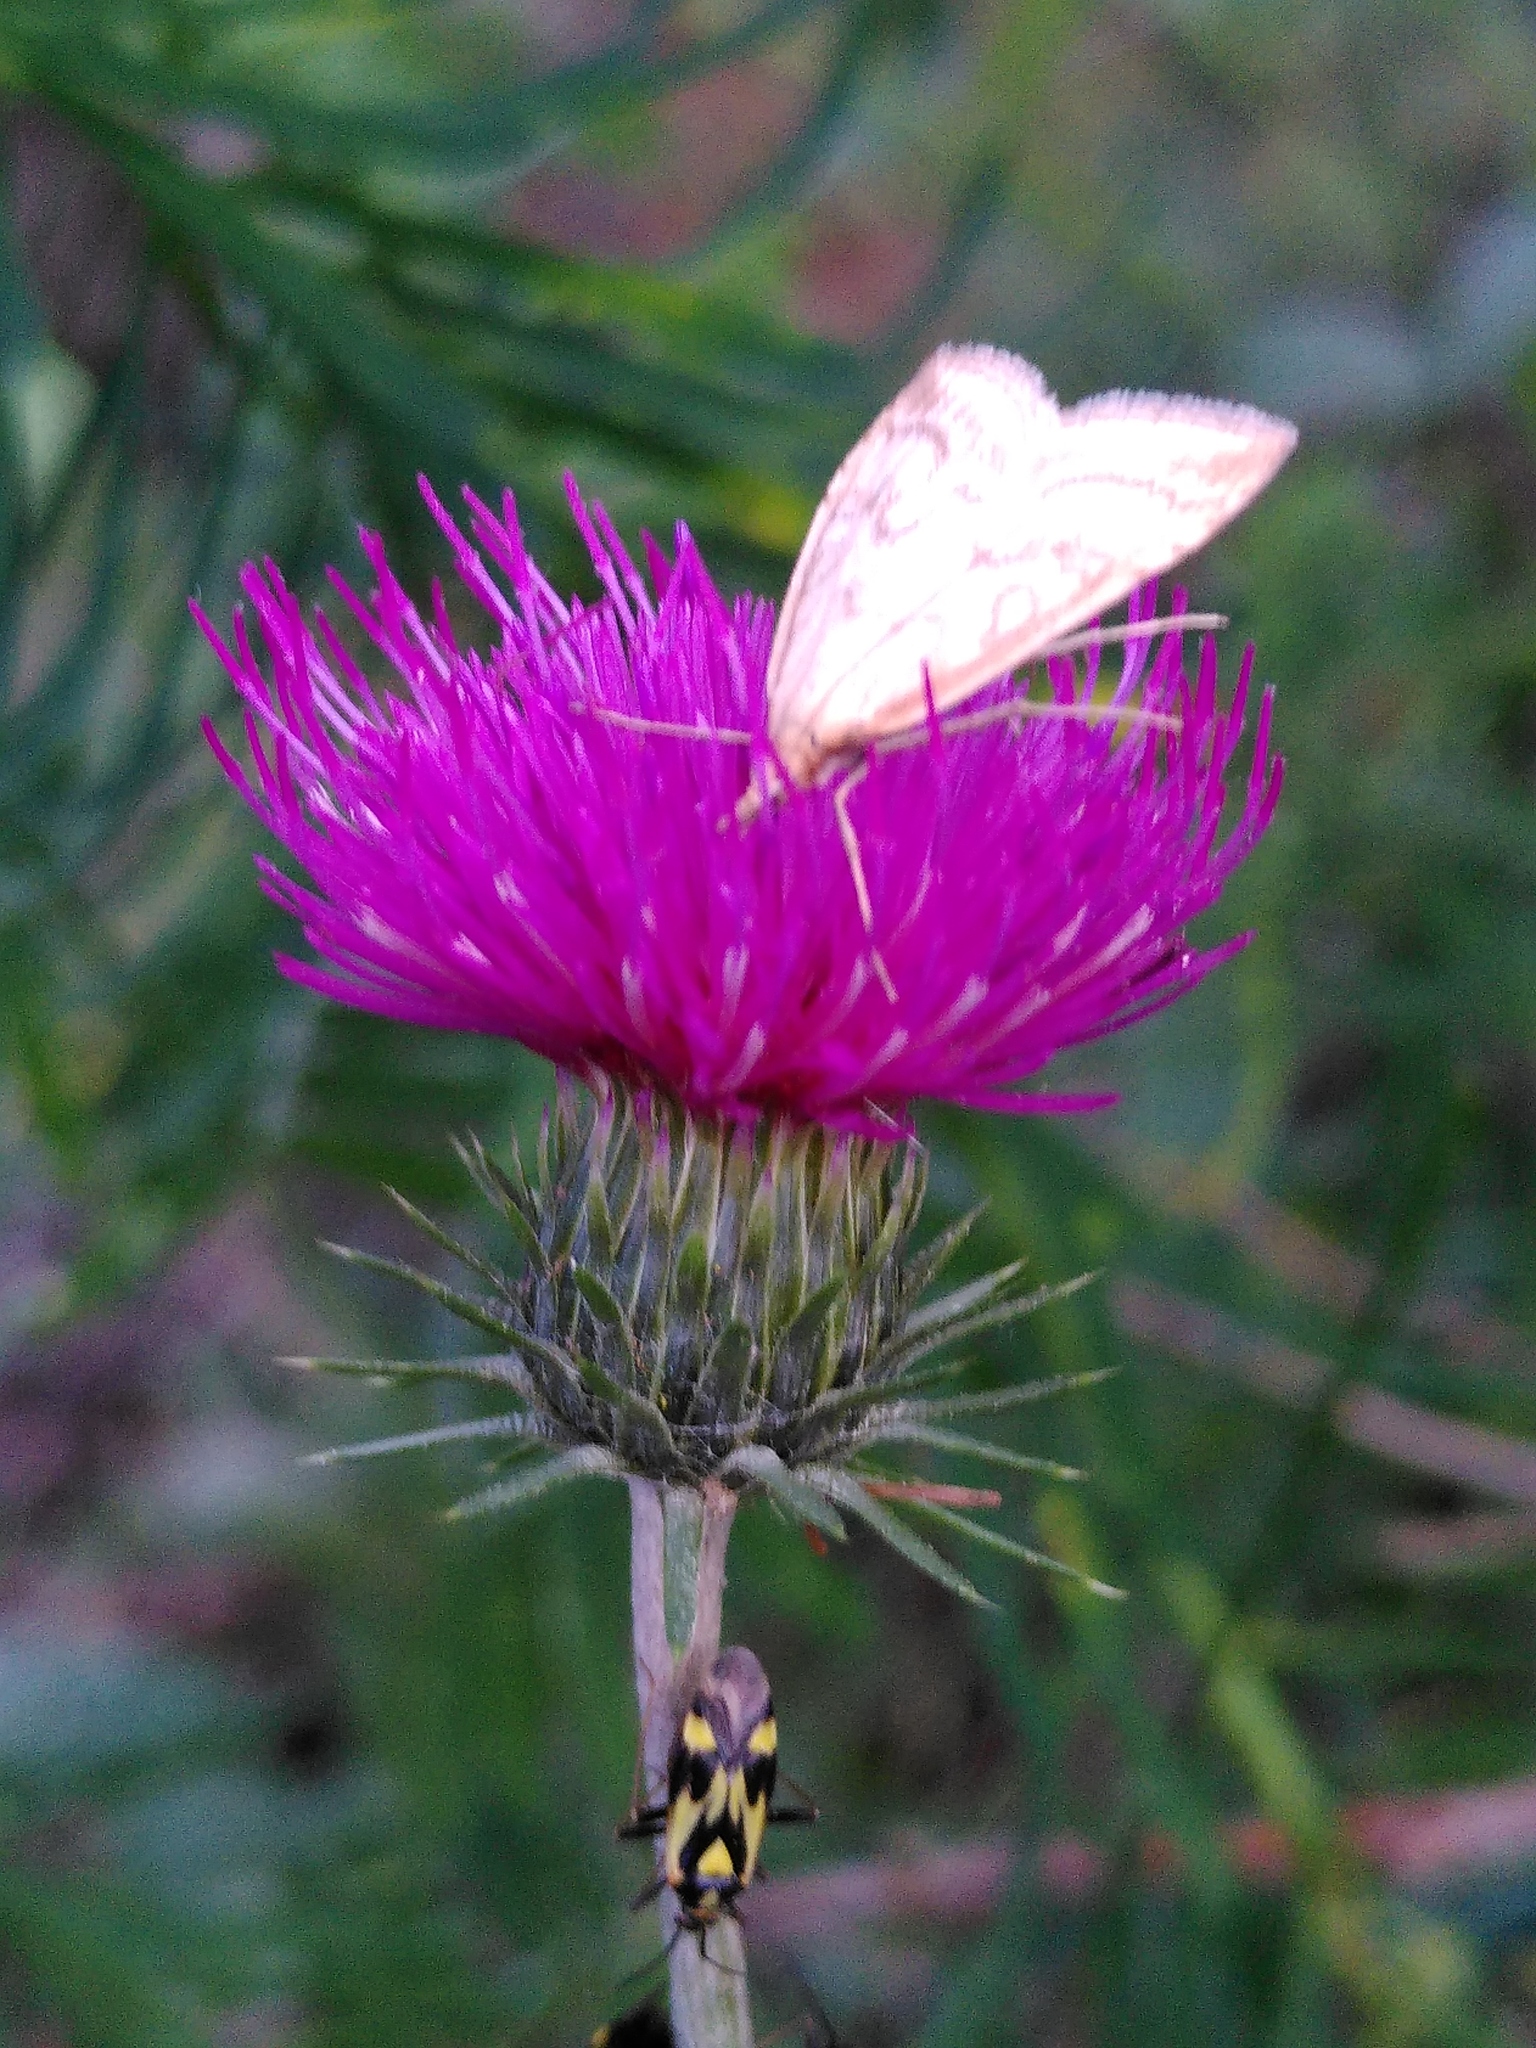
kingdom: Animalia
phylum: Arthropoda
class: Insecta
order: Hemiptera
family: Miridae
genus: Grypocoris
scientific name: Grypocoris sexguttatus
